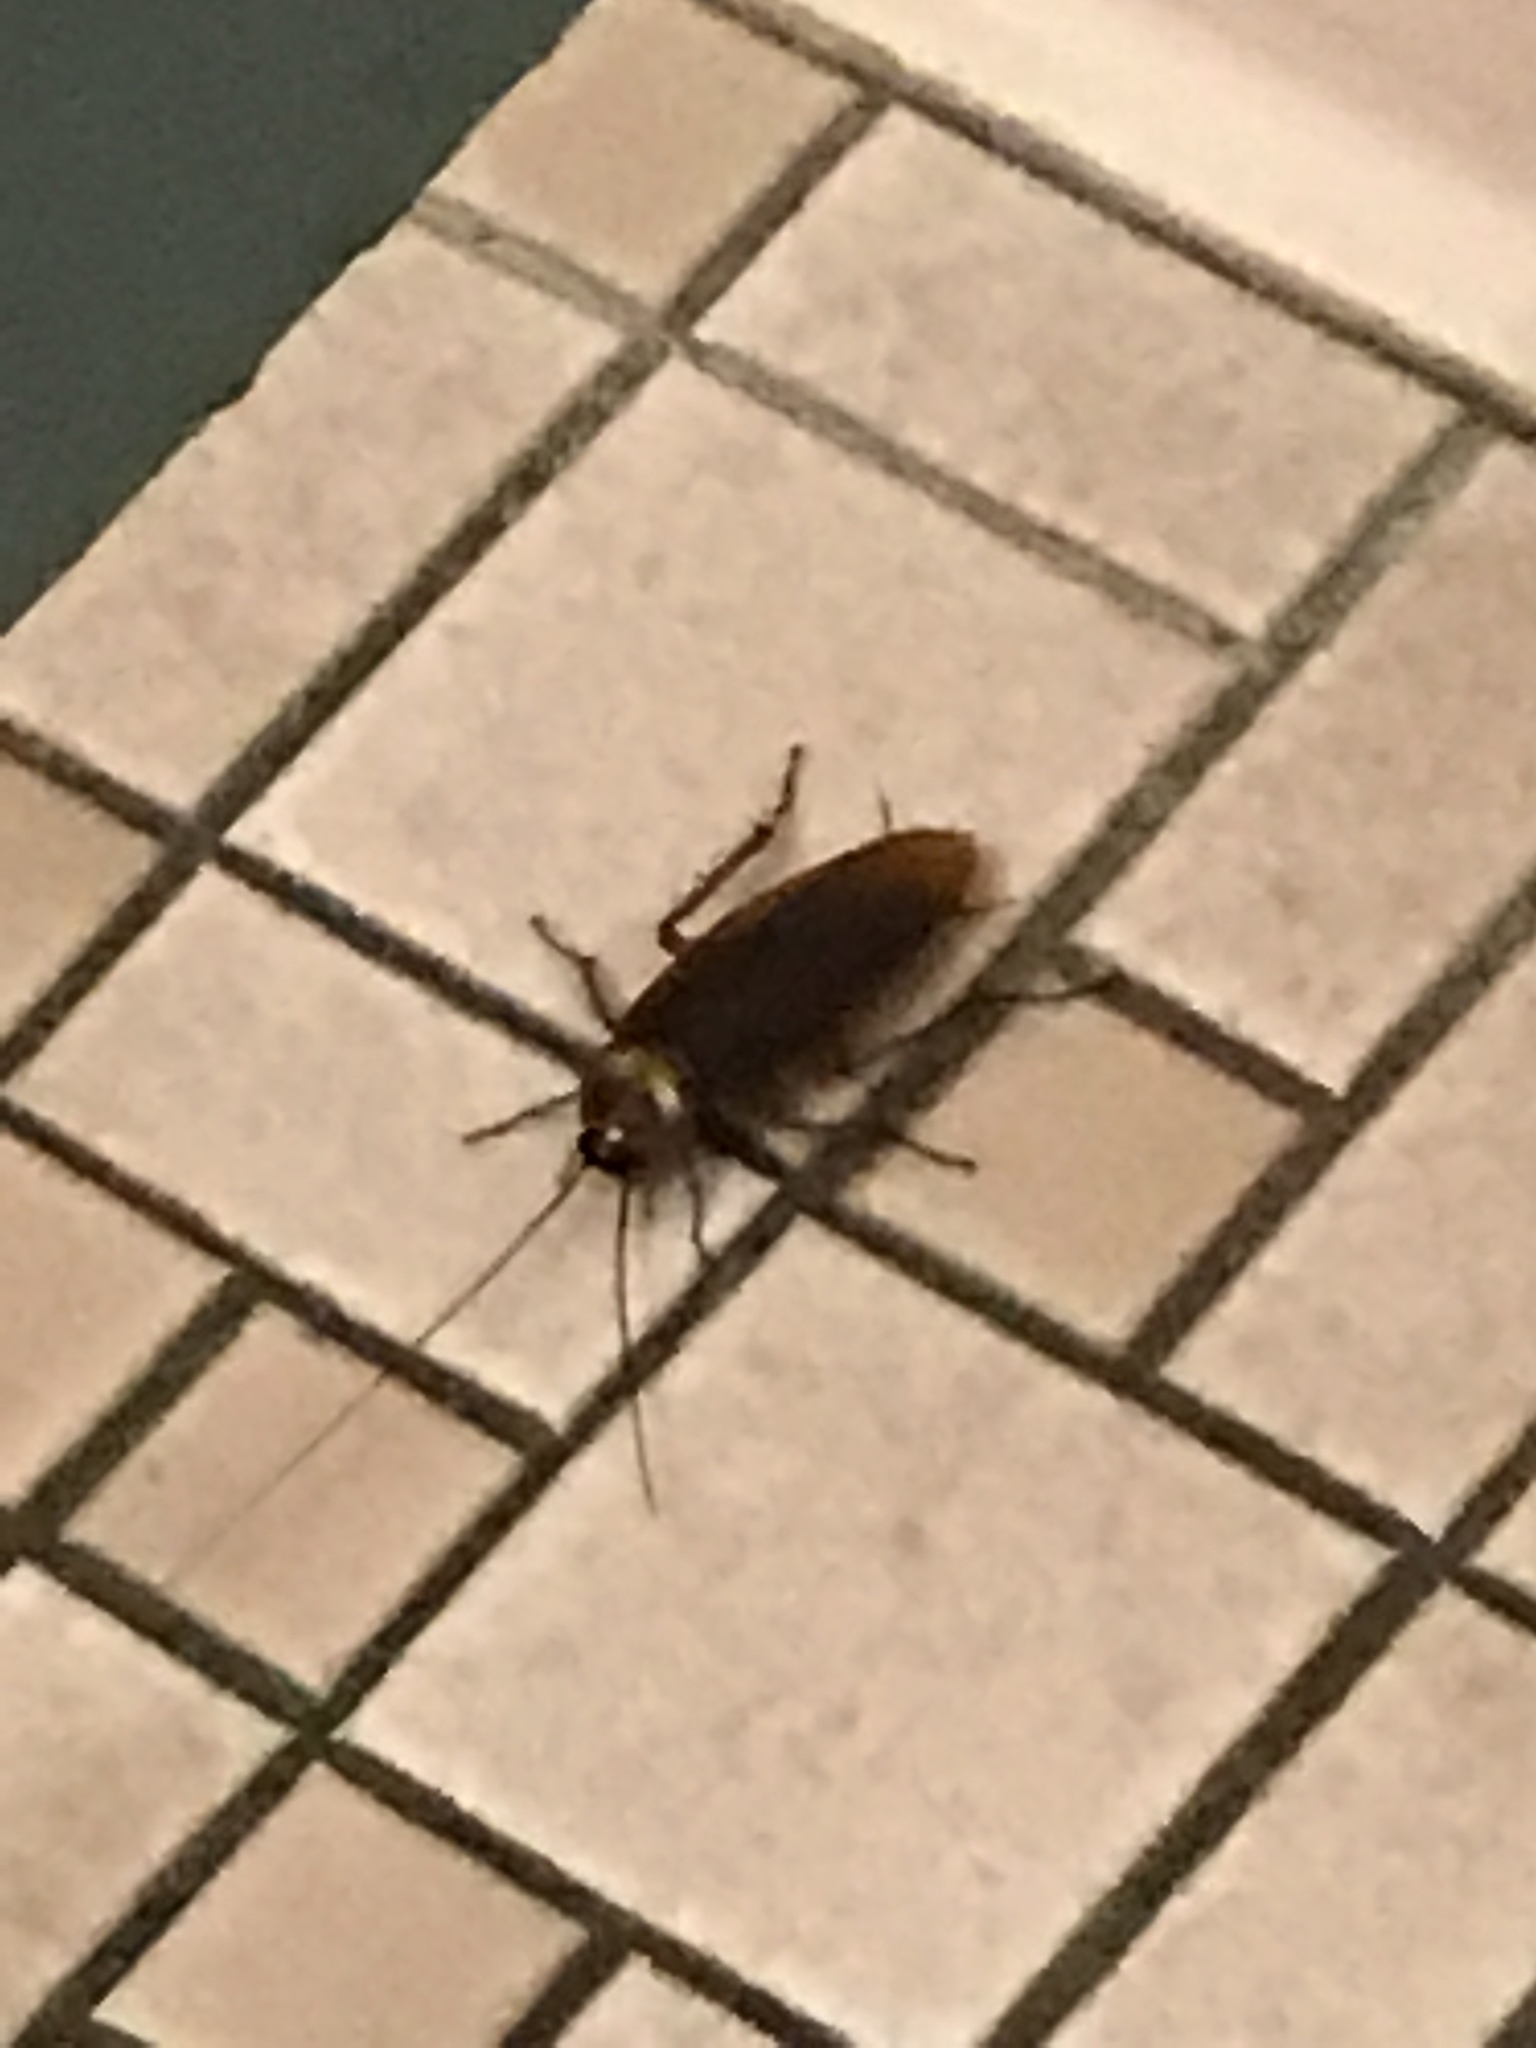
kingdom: Animalia
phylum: Arthropoda
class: Insecta
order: Blattodea
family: Blattidae
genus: Periplaneta
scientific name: Periplaneta americana
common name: American cockroach
